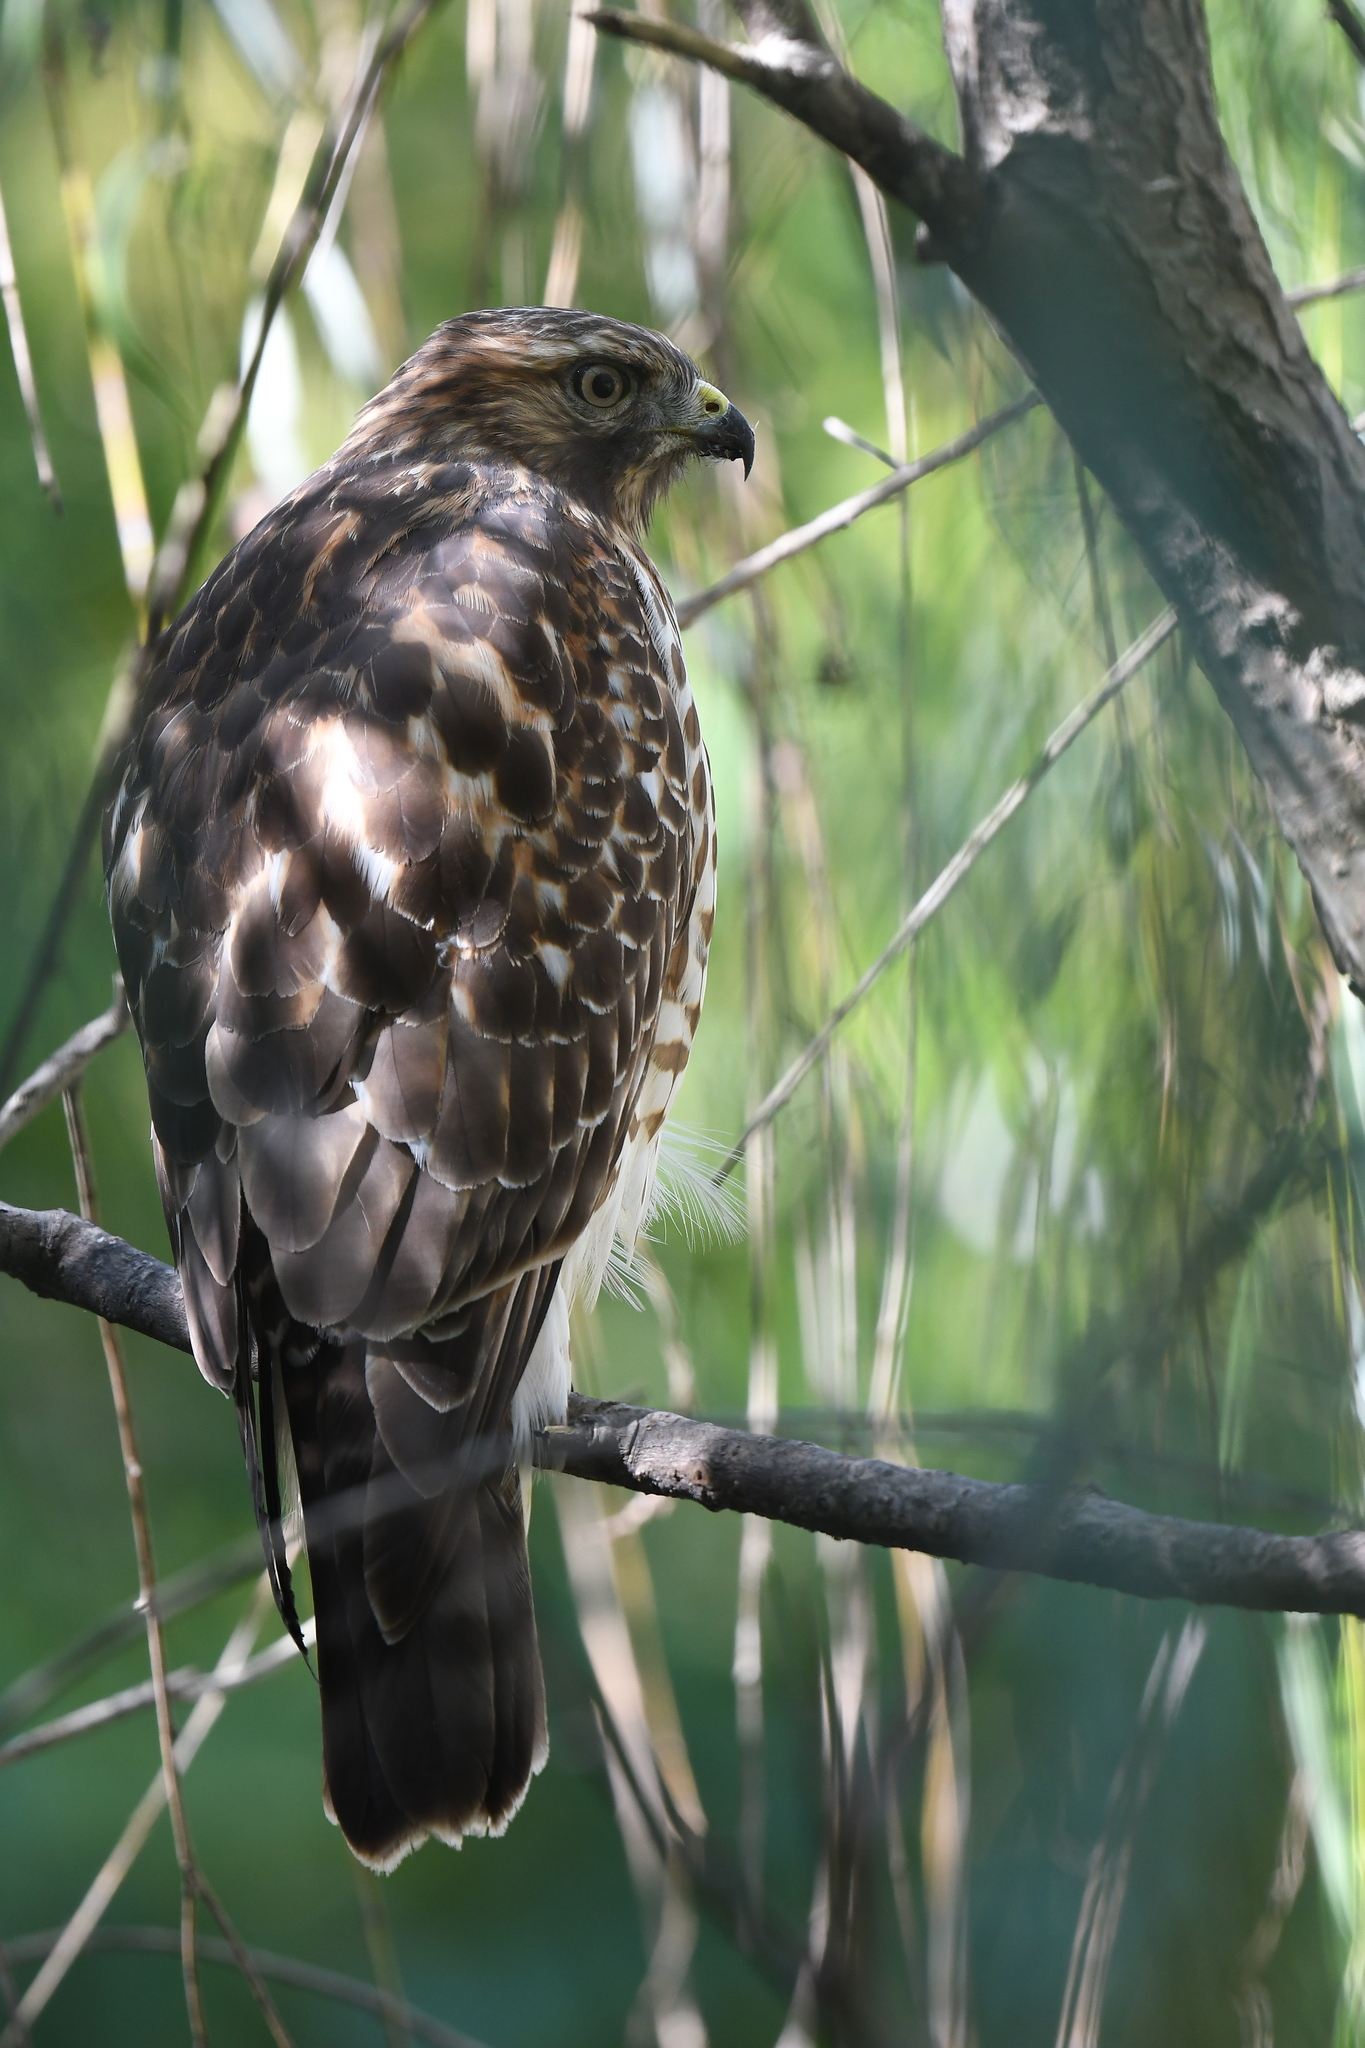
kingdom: Animalia
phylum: Chordata
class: Aves
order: Accipitriformes
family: Accipitridae
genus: Buteo
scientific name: Buteo lineatus
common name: Red-shouldered hawk
